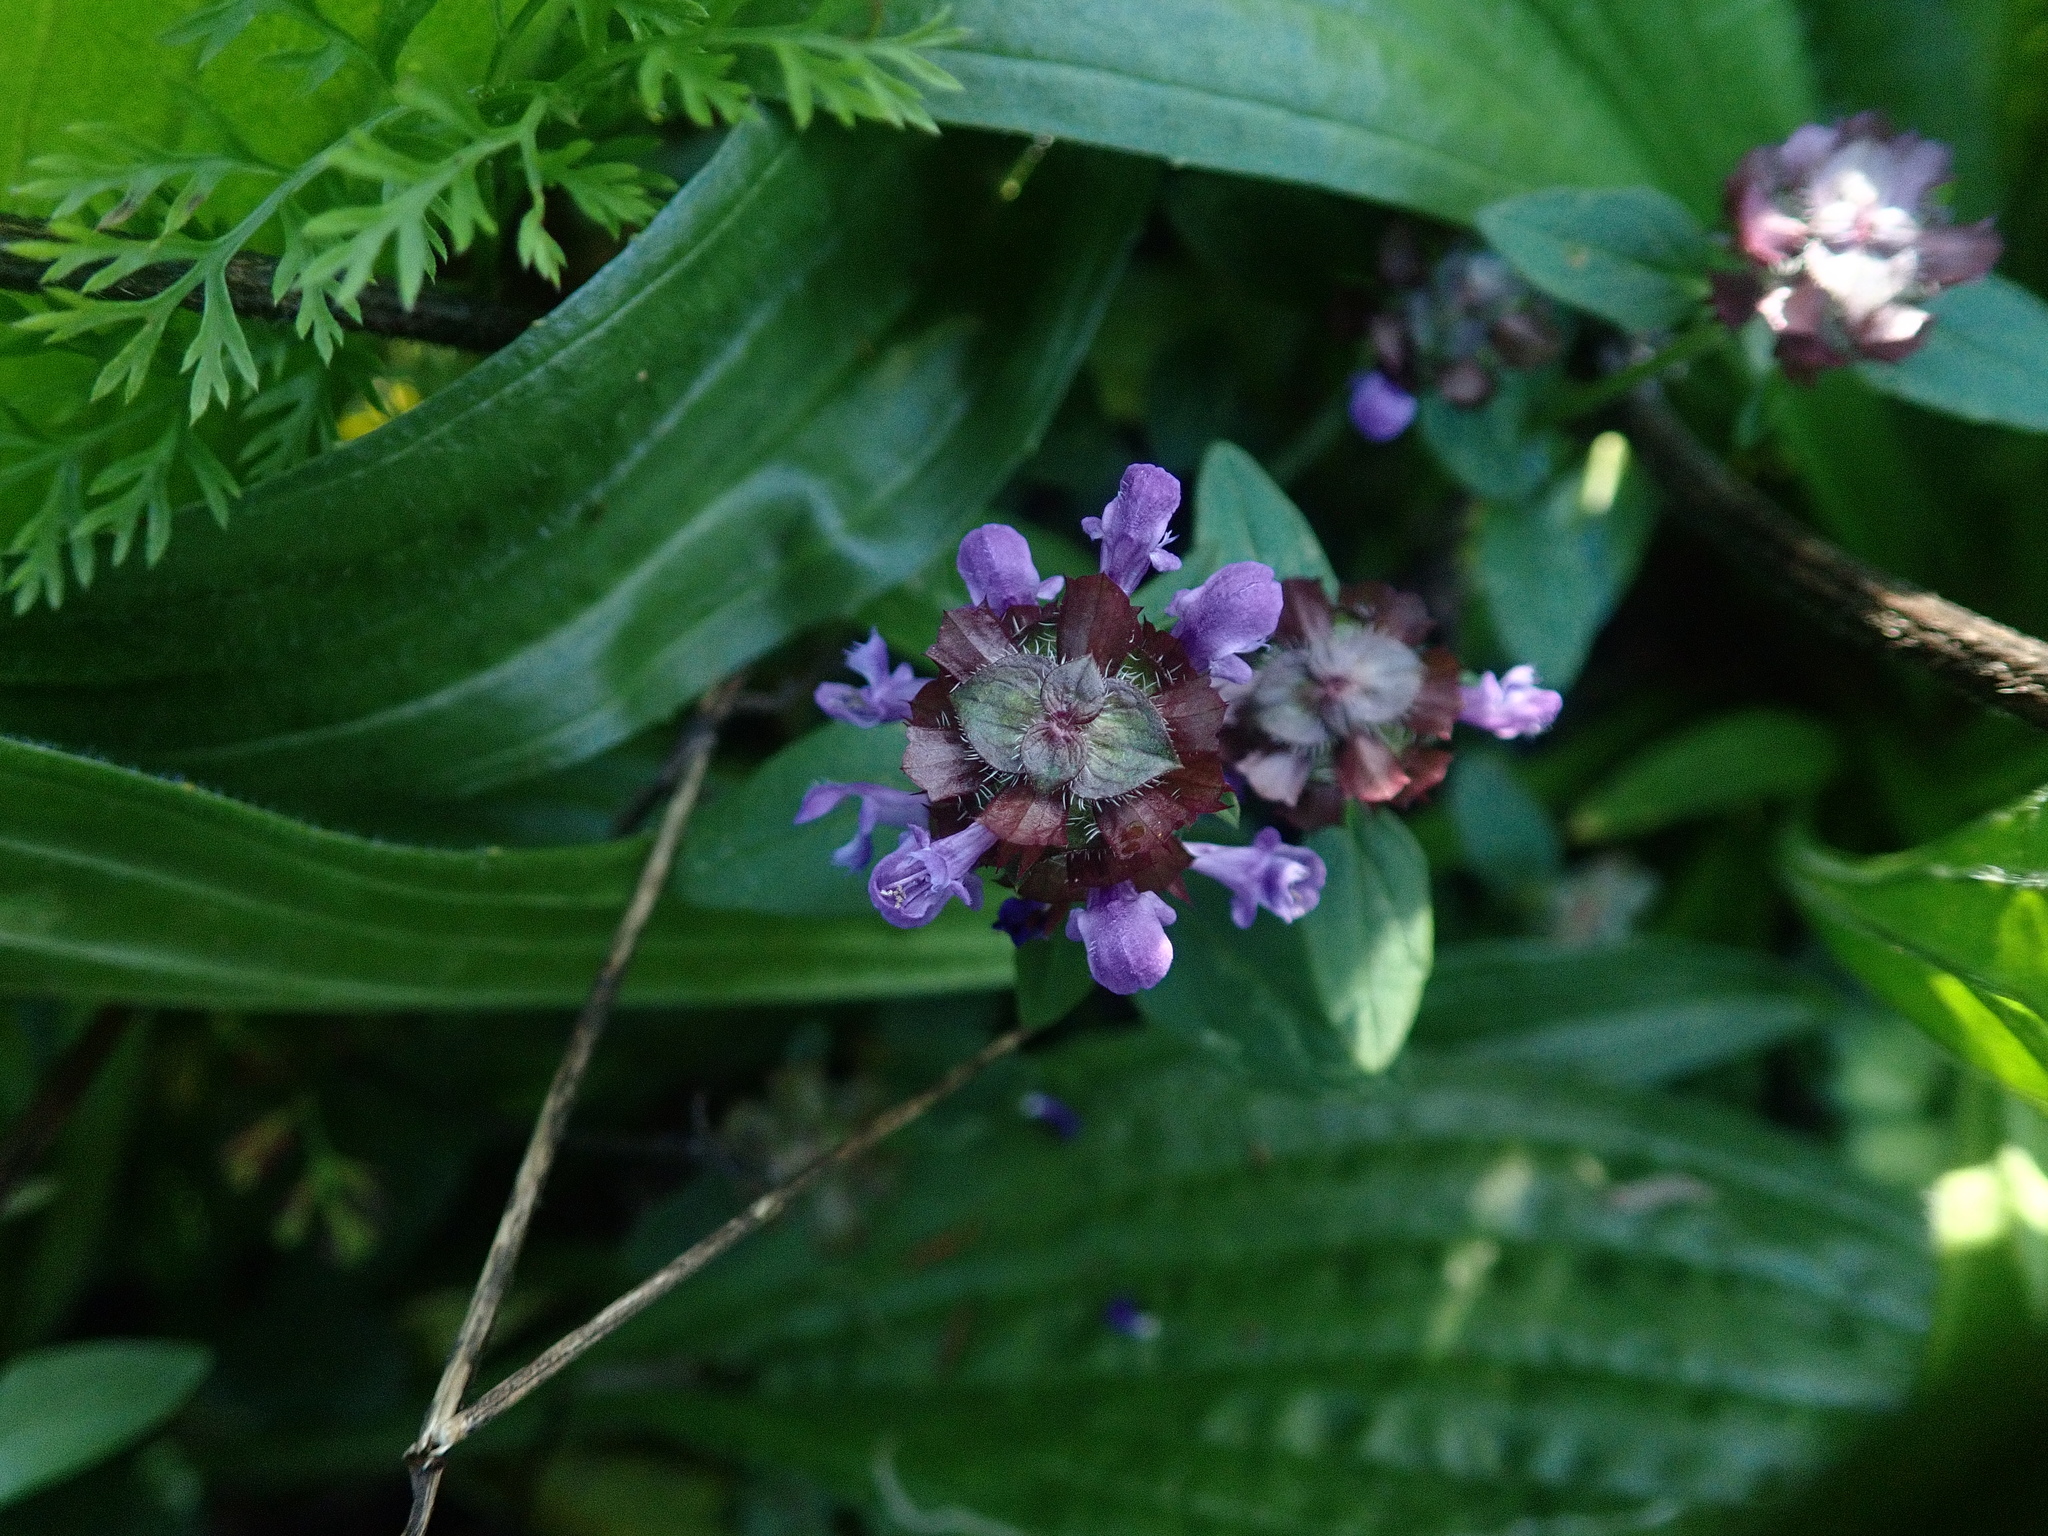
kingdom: Plantae
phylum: Tracheophyta
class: Magnoliopsida
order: Lamiales
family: Lamiaceae
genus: Prunella
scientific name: Prunella vulgaris
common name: Heal-all
